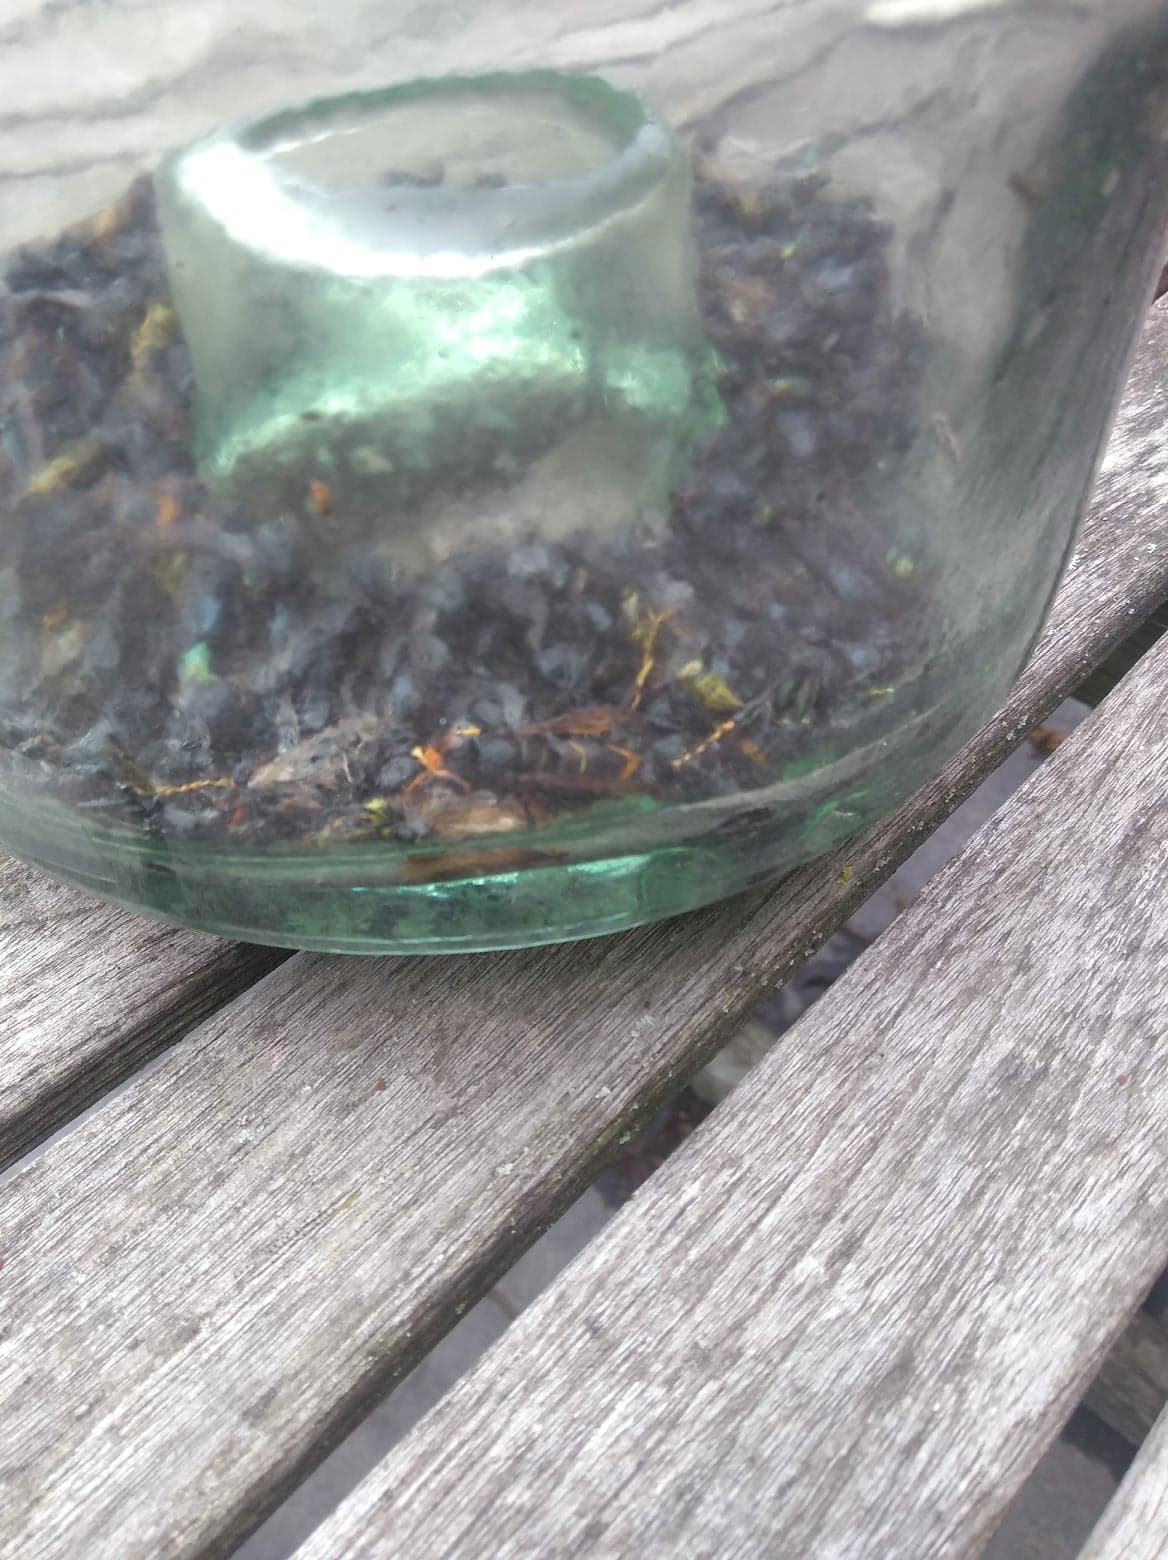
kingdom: Animalia
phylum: Arthropoda
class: Insecta
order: Hymenoptera
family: Vespidae
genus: Vespa
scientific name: Vespa velutina
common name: Asian hornet
